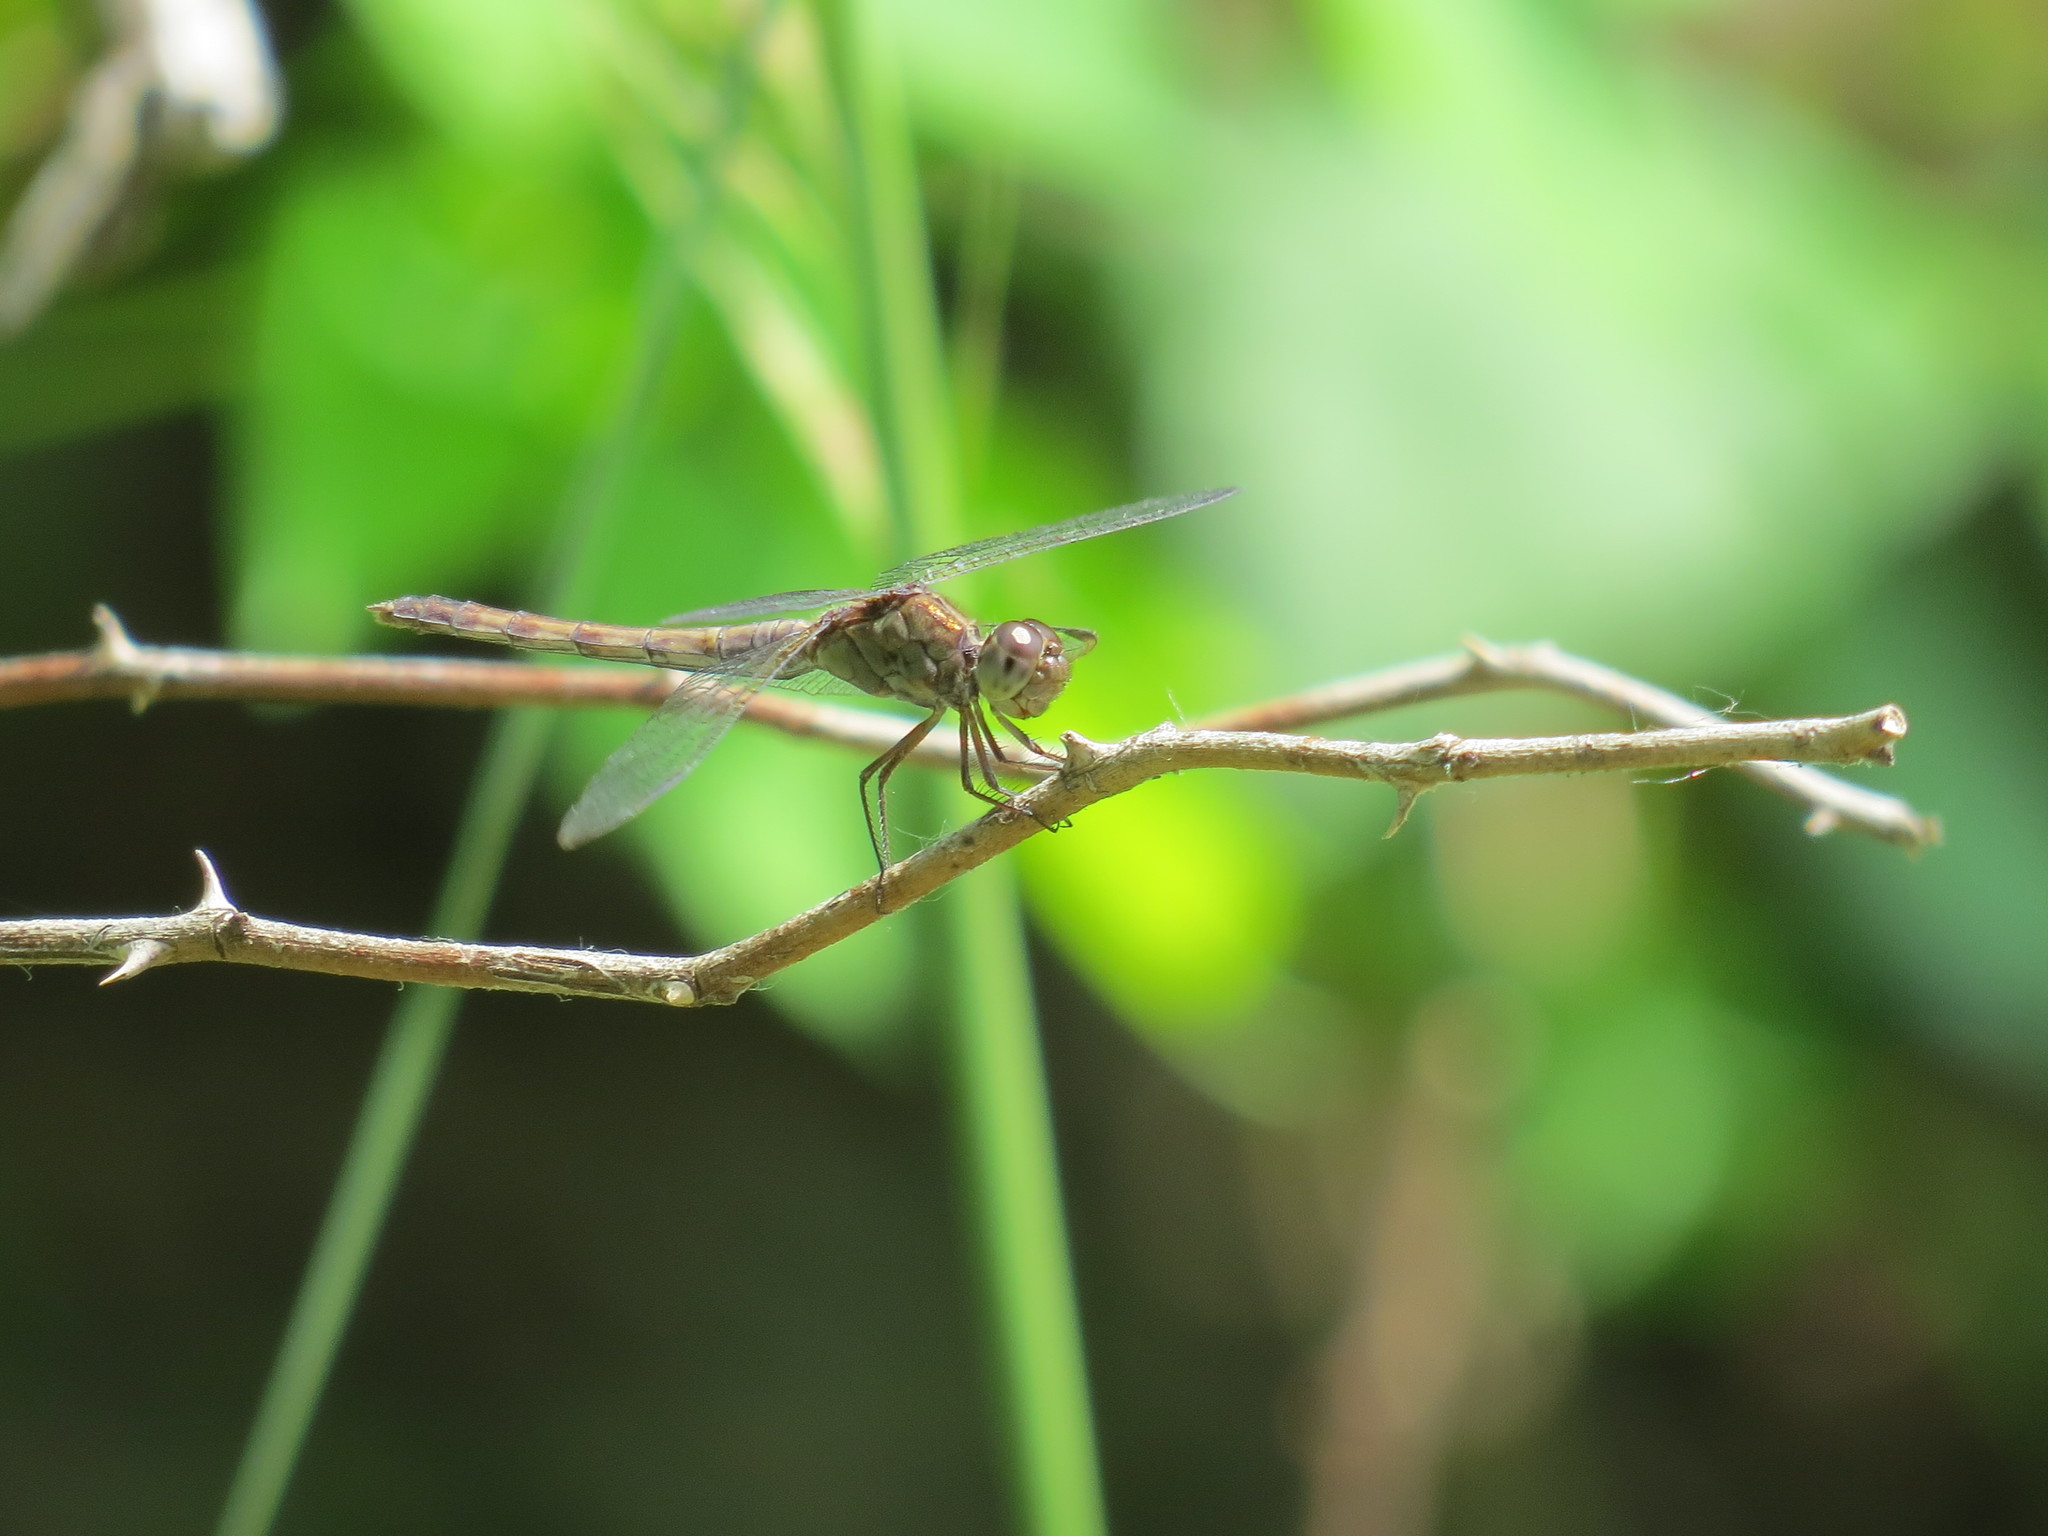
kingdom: Animalia
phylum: Arthropoda
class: Insecta
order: Odonata
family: Libellulidae
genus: Erythrodiplax
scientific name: Erythrodiplax umbrata
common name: Band-winged dragonlet
